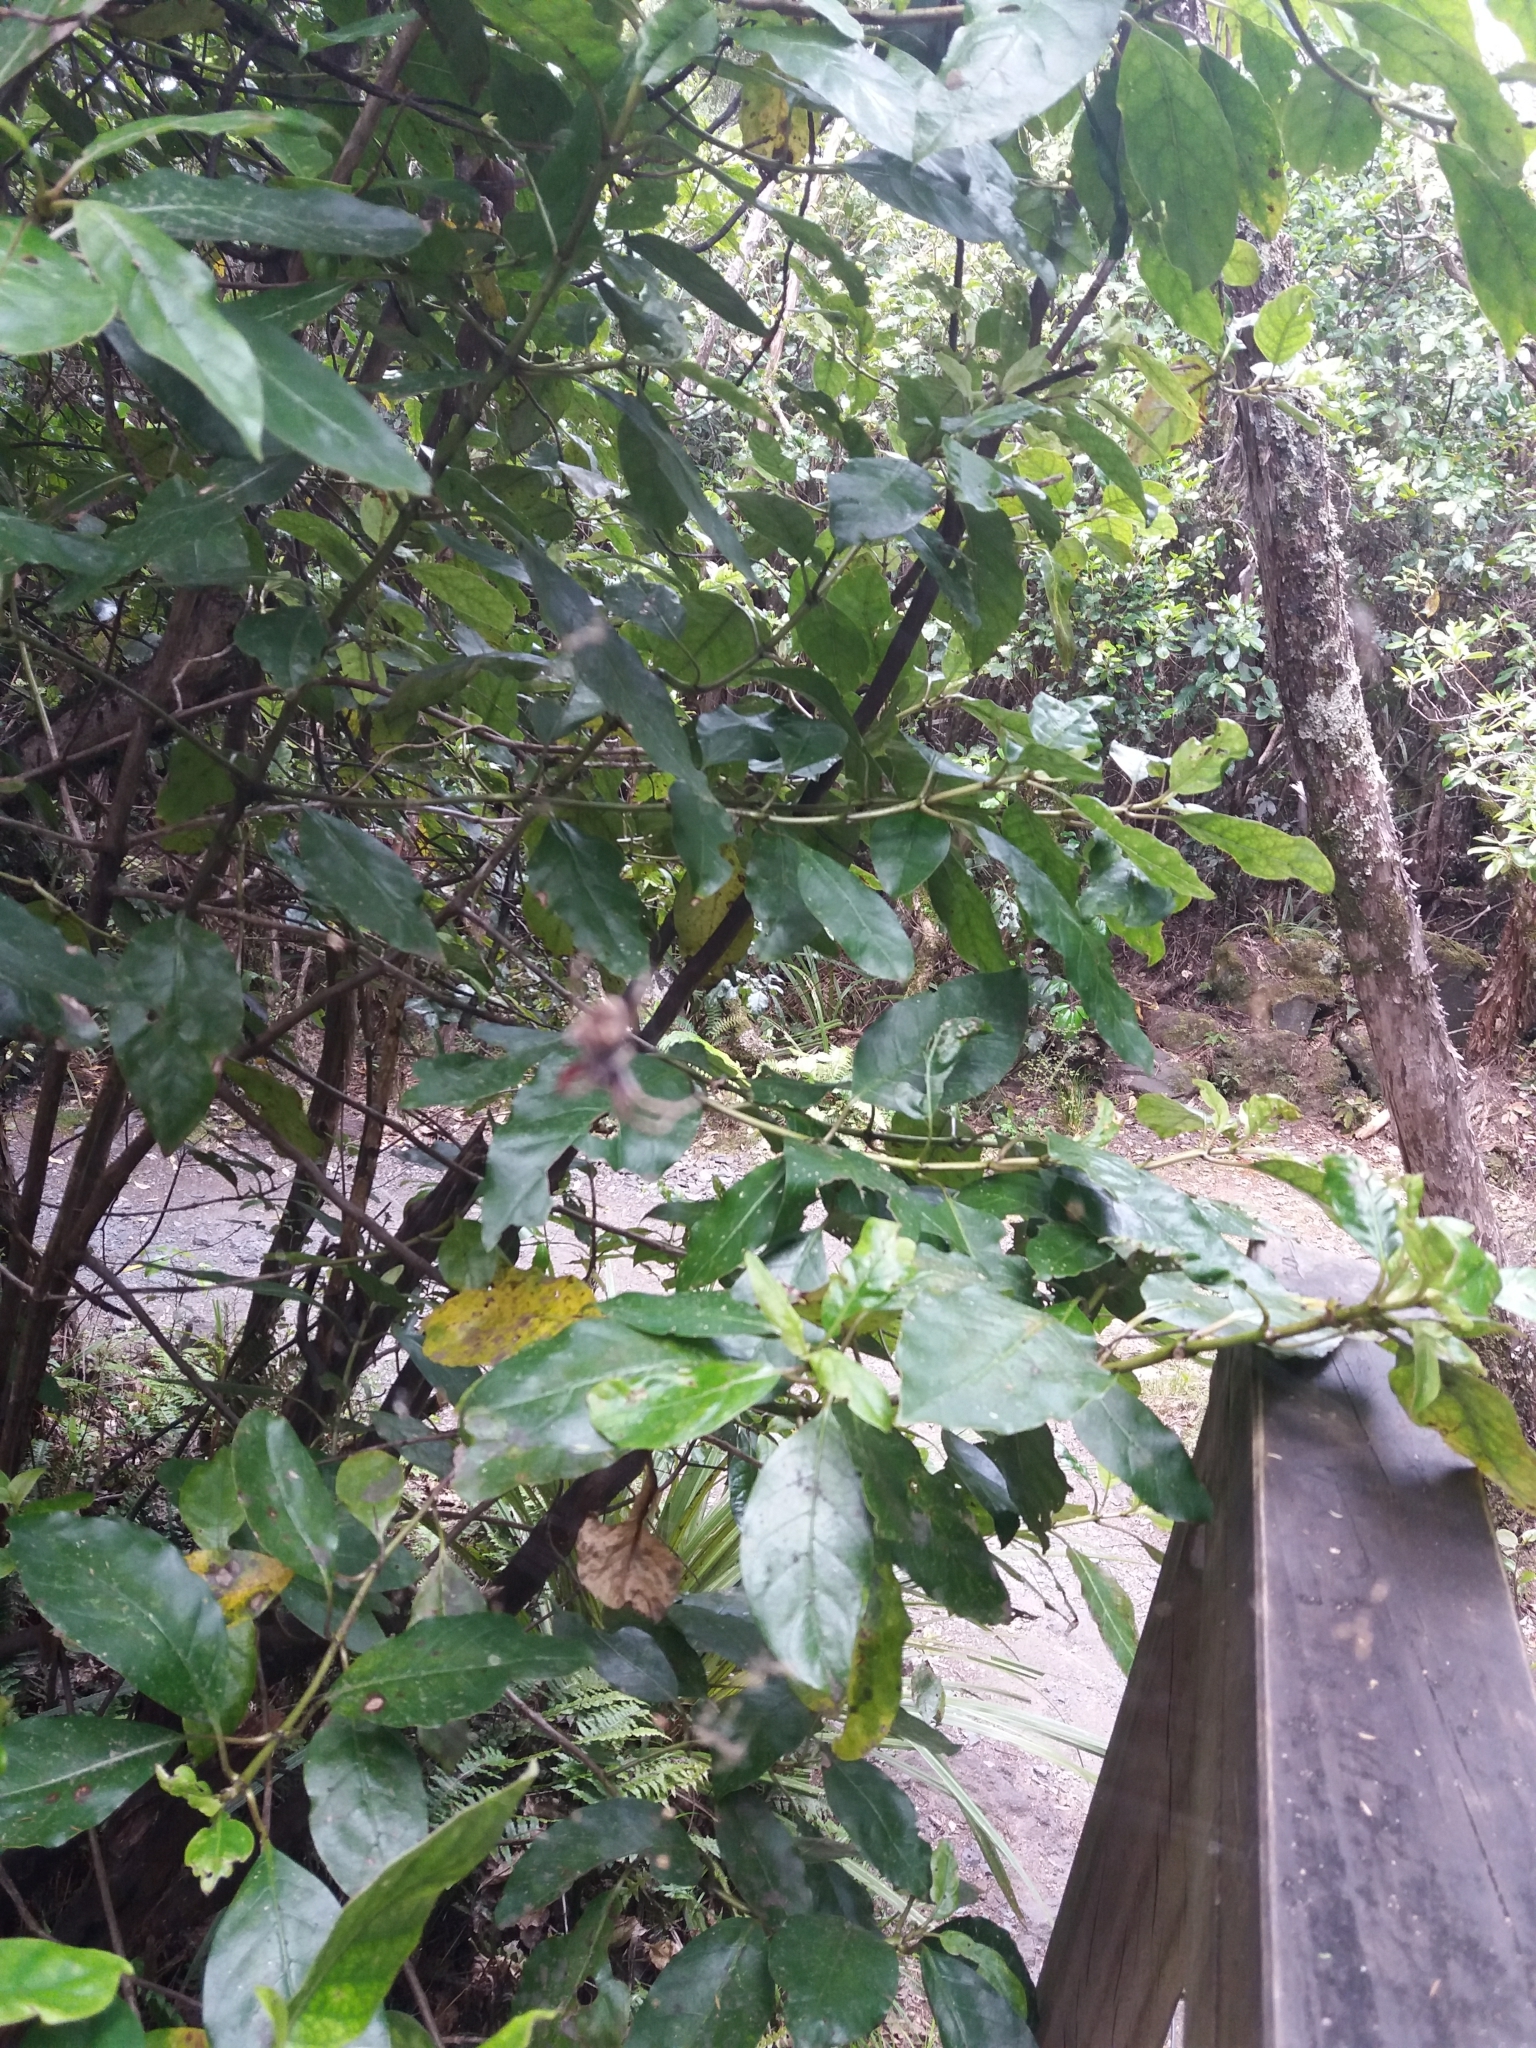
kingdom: Animalia
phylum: Arthropoda
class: Arachnida
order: Araneae
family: Araneidae
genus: Eriophora
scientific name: Eriophora pustulosa
